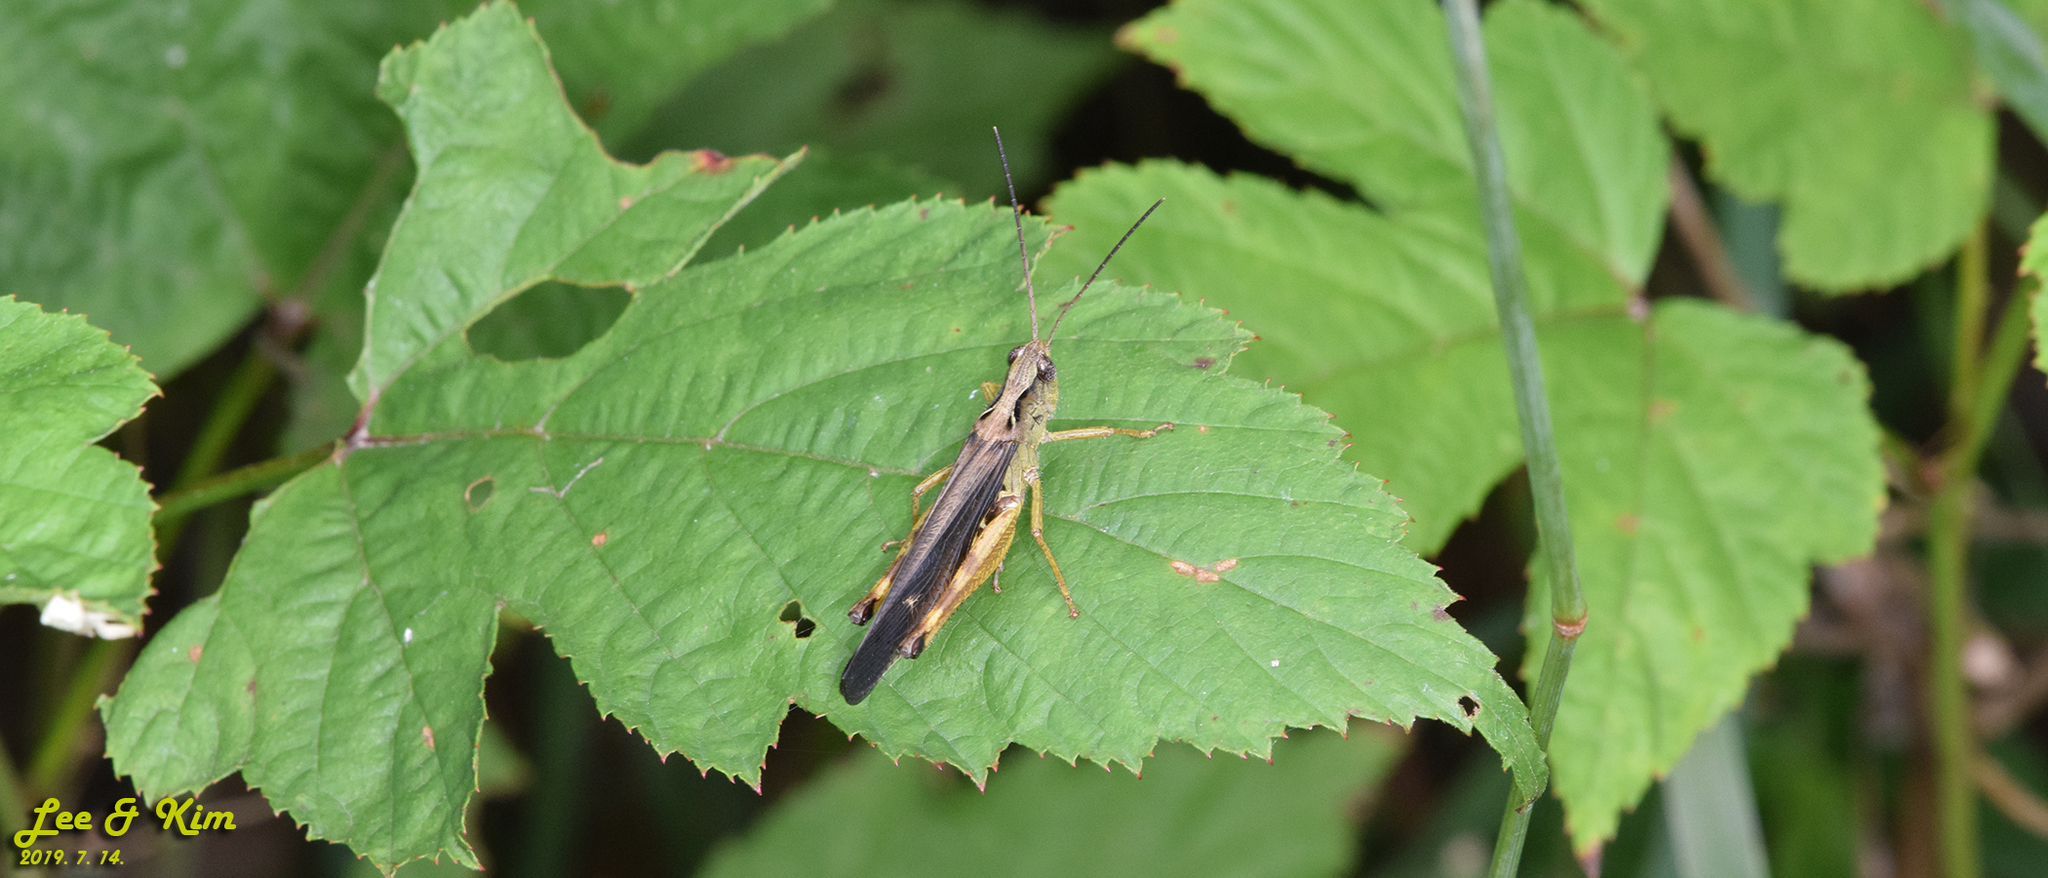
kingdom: Animalia
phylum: Arthropoda
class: Insecta
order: Orthoptera
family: Acrididae
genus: Megaulacobothrus
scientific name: Megaulacobothrus aethalinus
